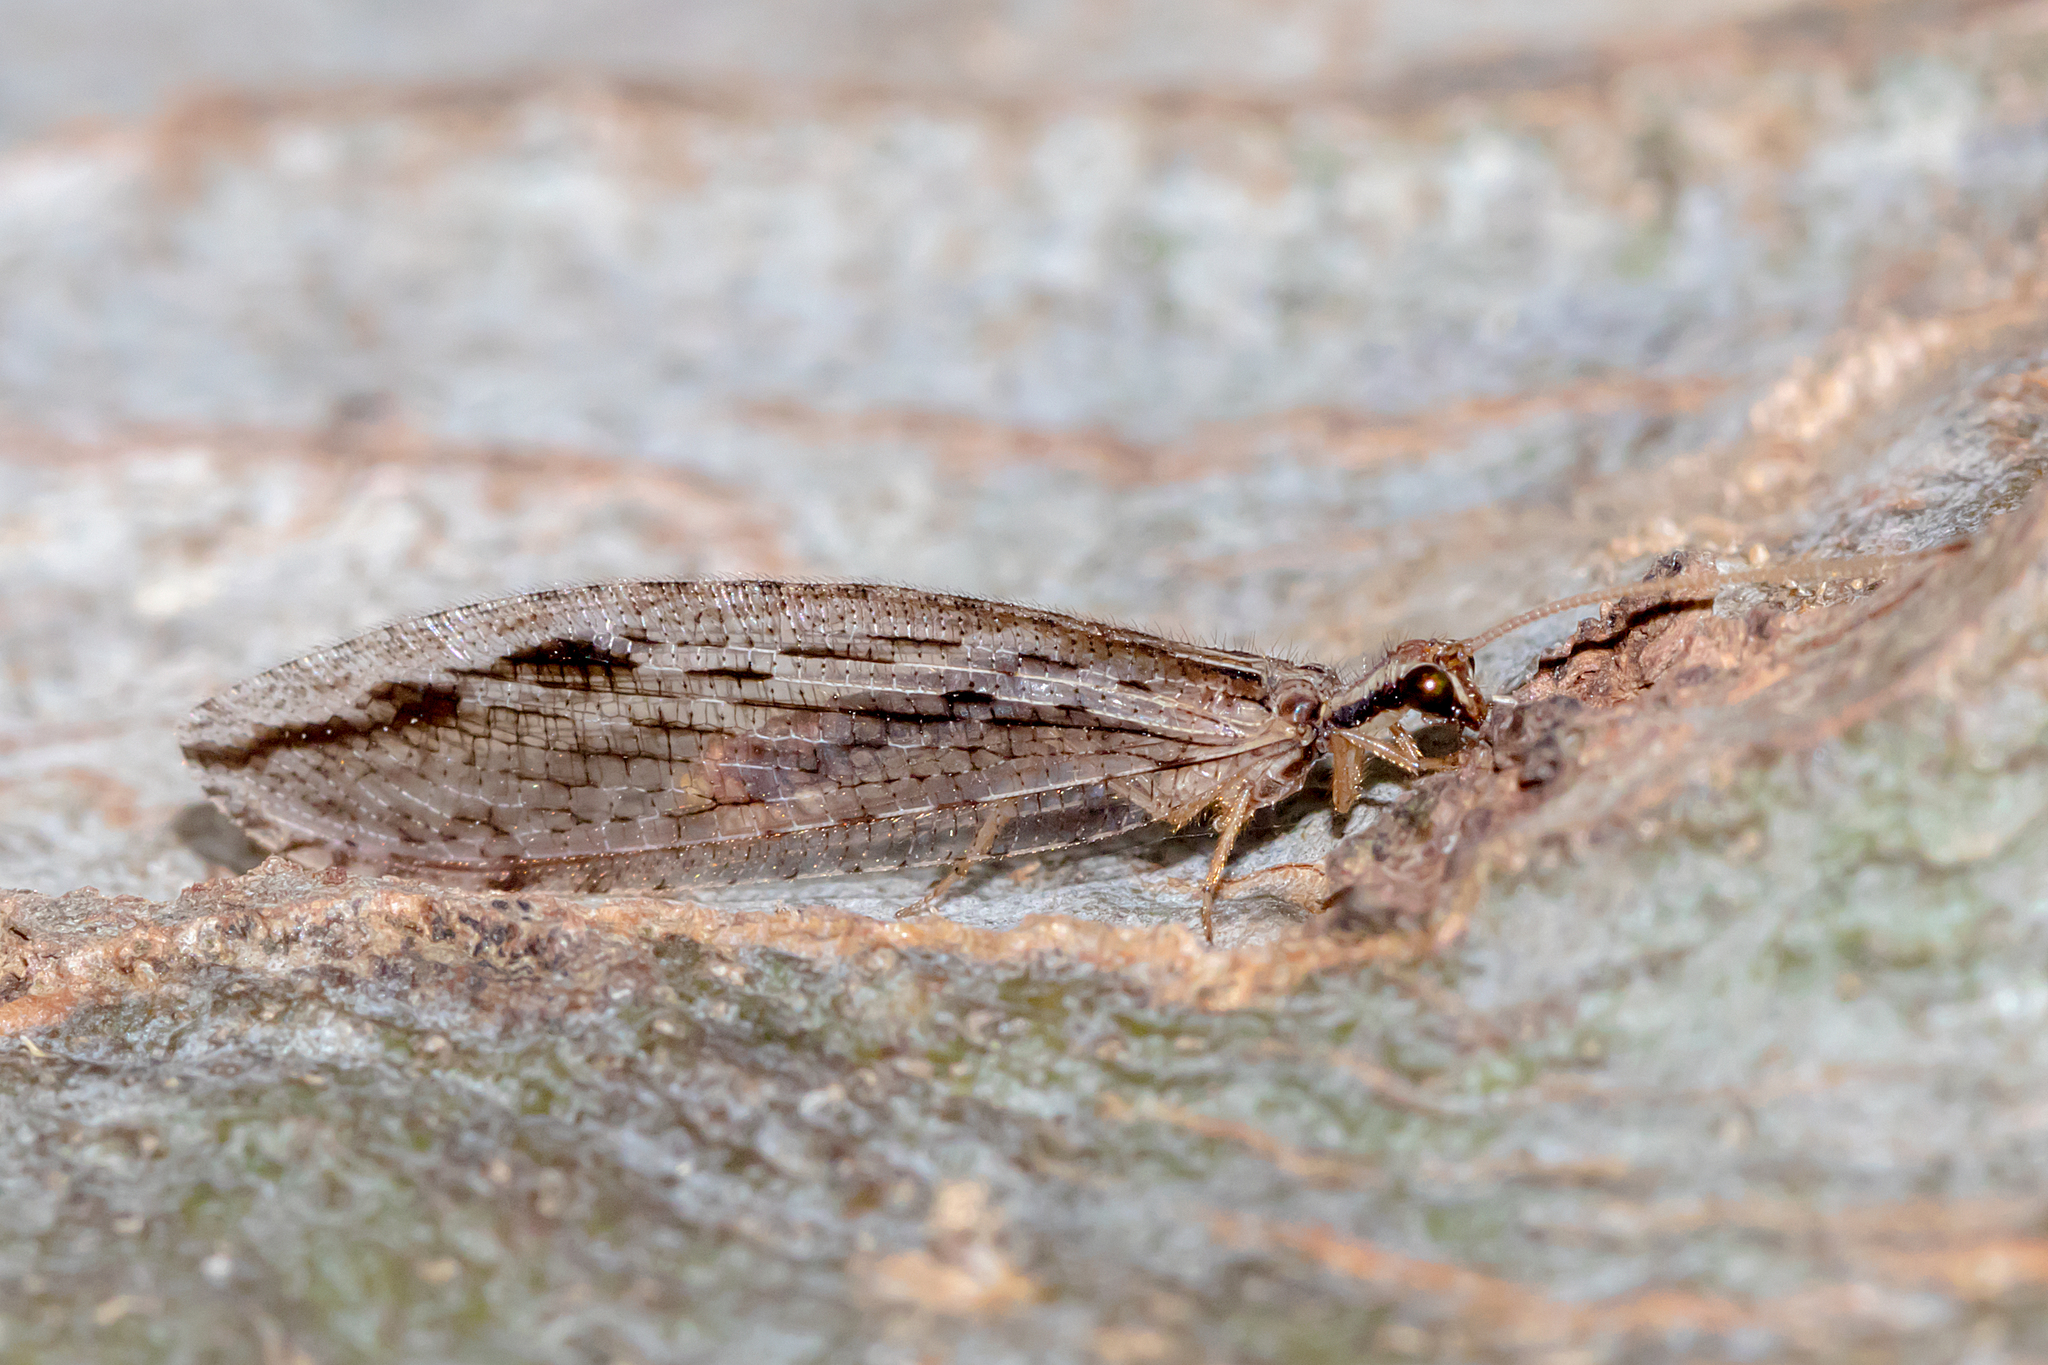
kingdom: Animalia
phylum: Arthropoda
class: Insecta
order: Neuroptera
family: Osmylidae
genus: Stenosmylus
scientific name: Stenosmylus stenopterus
